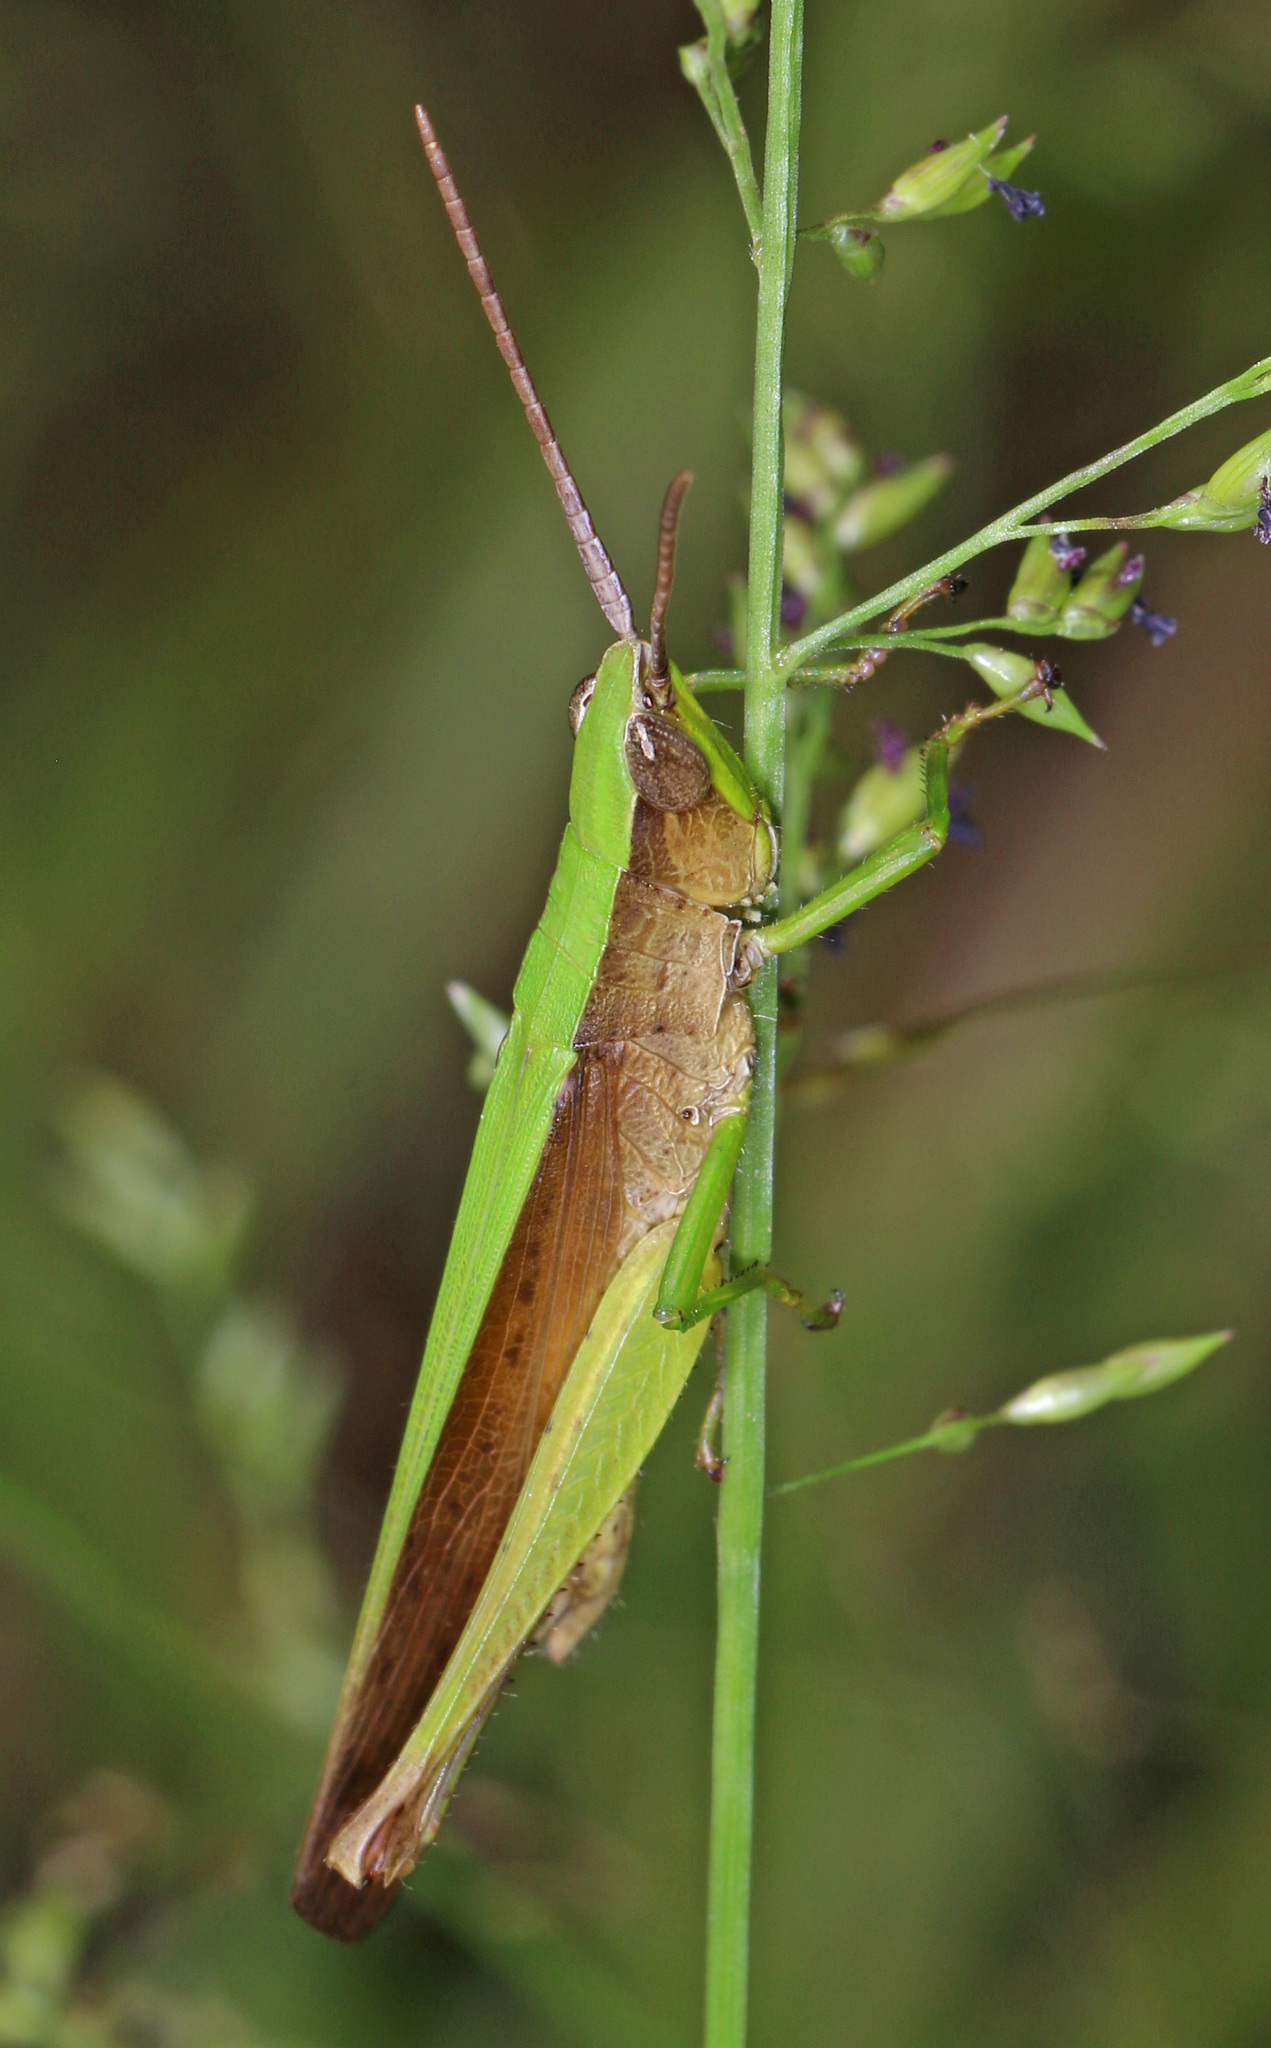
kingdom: Animalia
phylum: Arthropoda
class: Insecta
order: Orthoptera
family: Acrididae
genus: Metaleptea
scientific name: Metaleptea brevicornis
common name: Clipped-wing grasshopper
